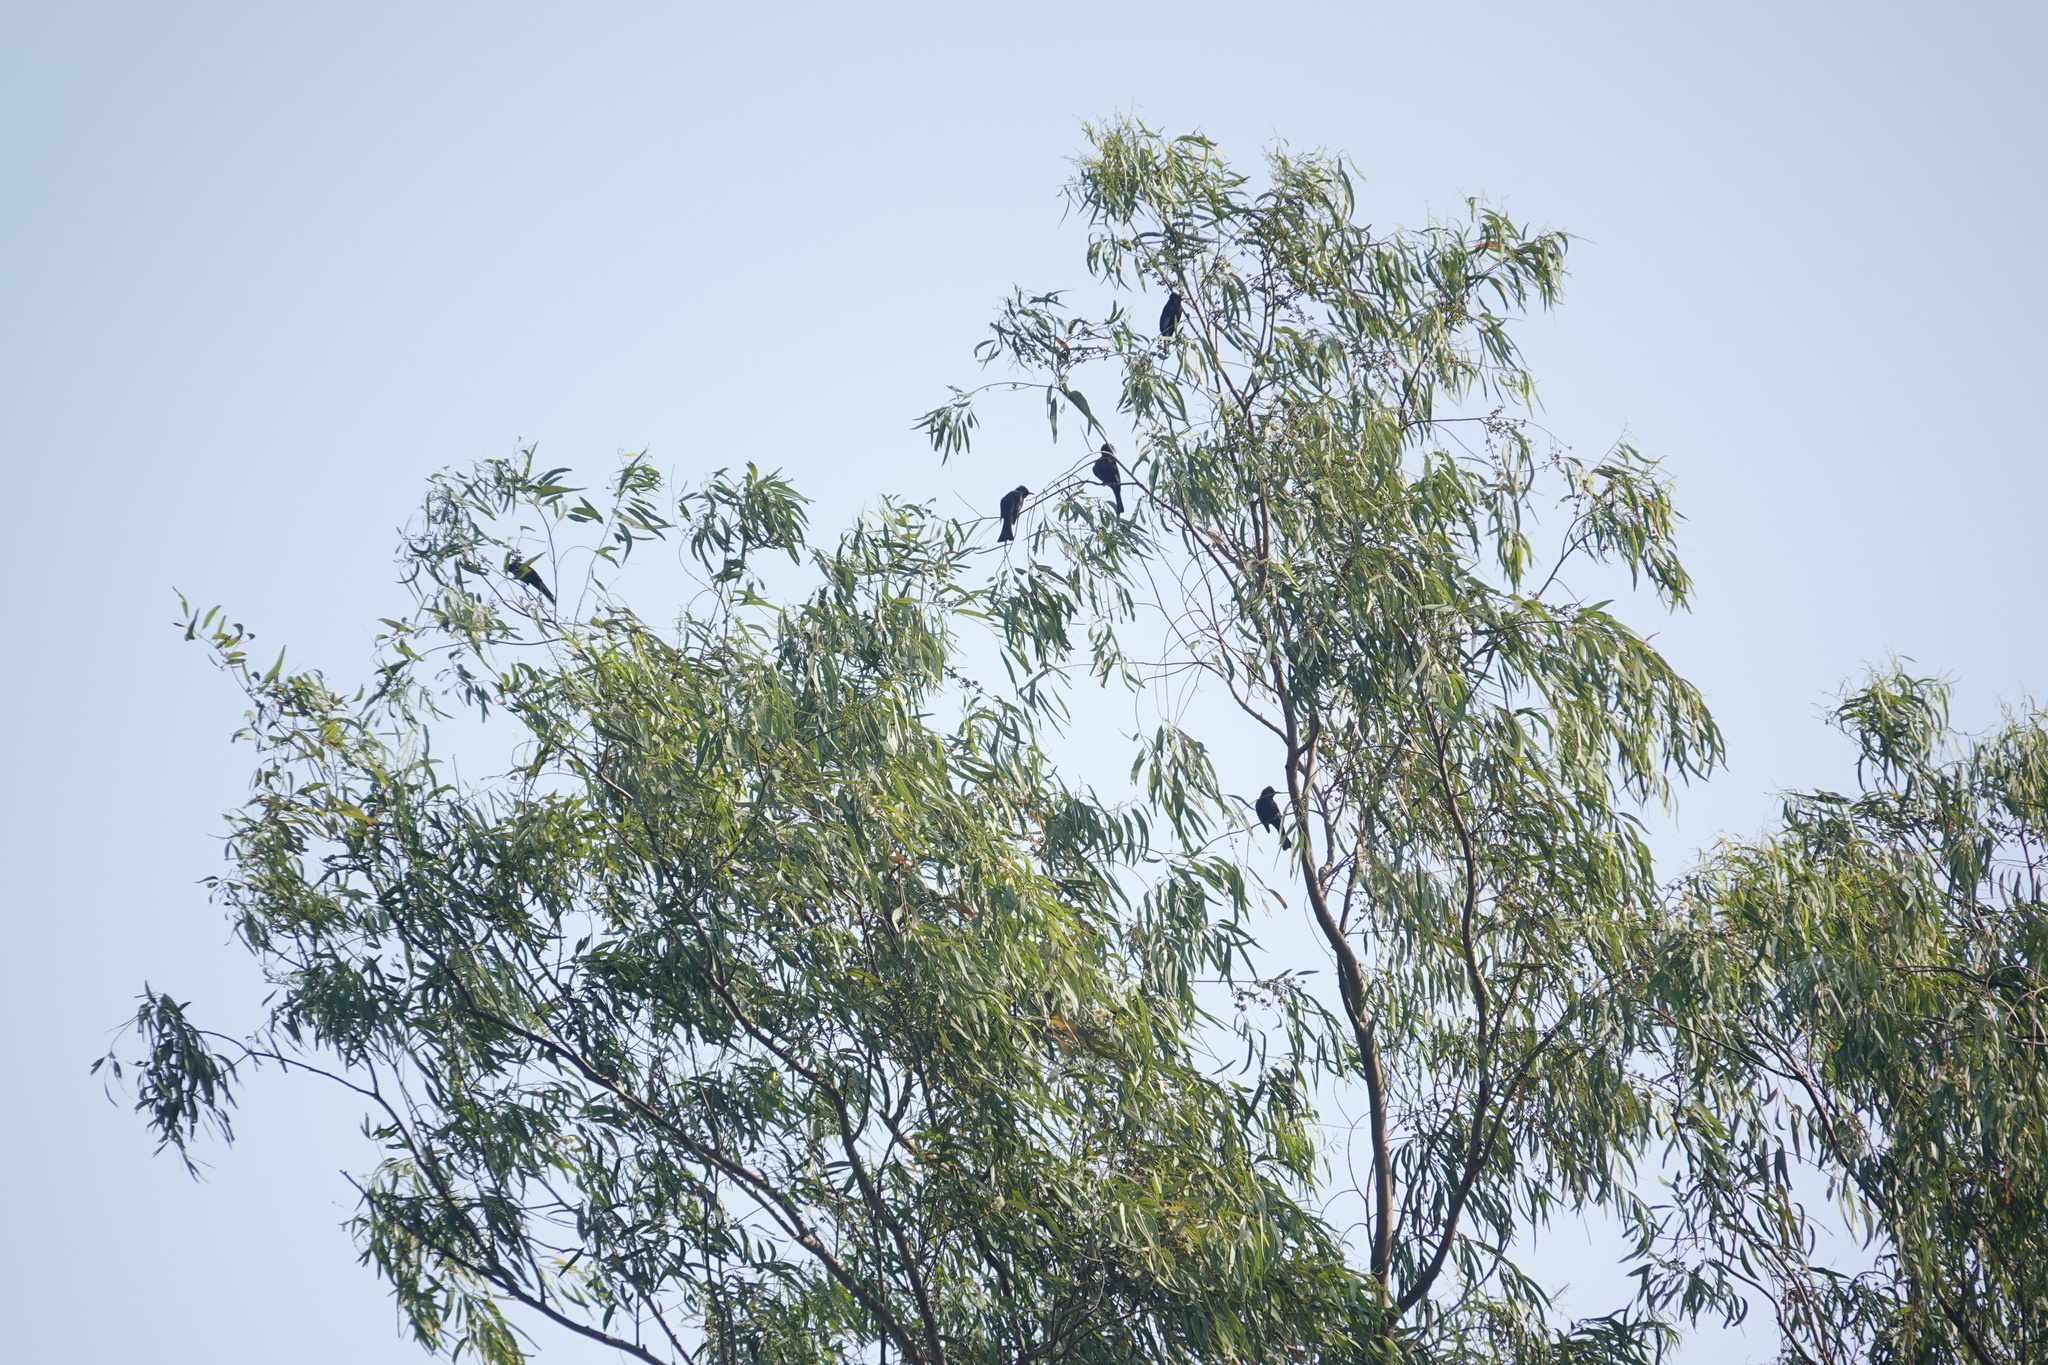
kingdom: Animalia
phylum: Chordata
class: Aves
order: Passeriformes
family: Pycnonotidae
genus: Hypsipetes
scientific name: Hypsipetes leucocephalus
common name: Black bulbul
